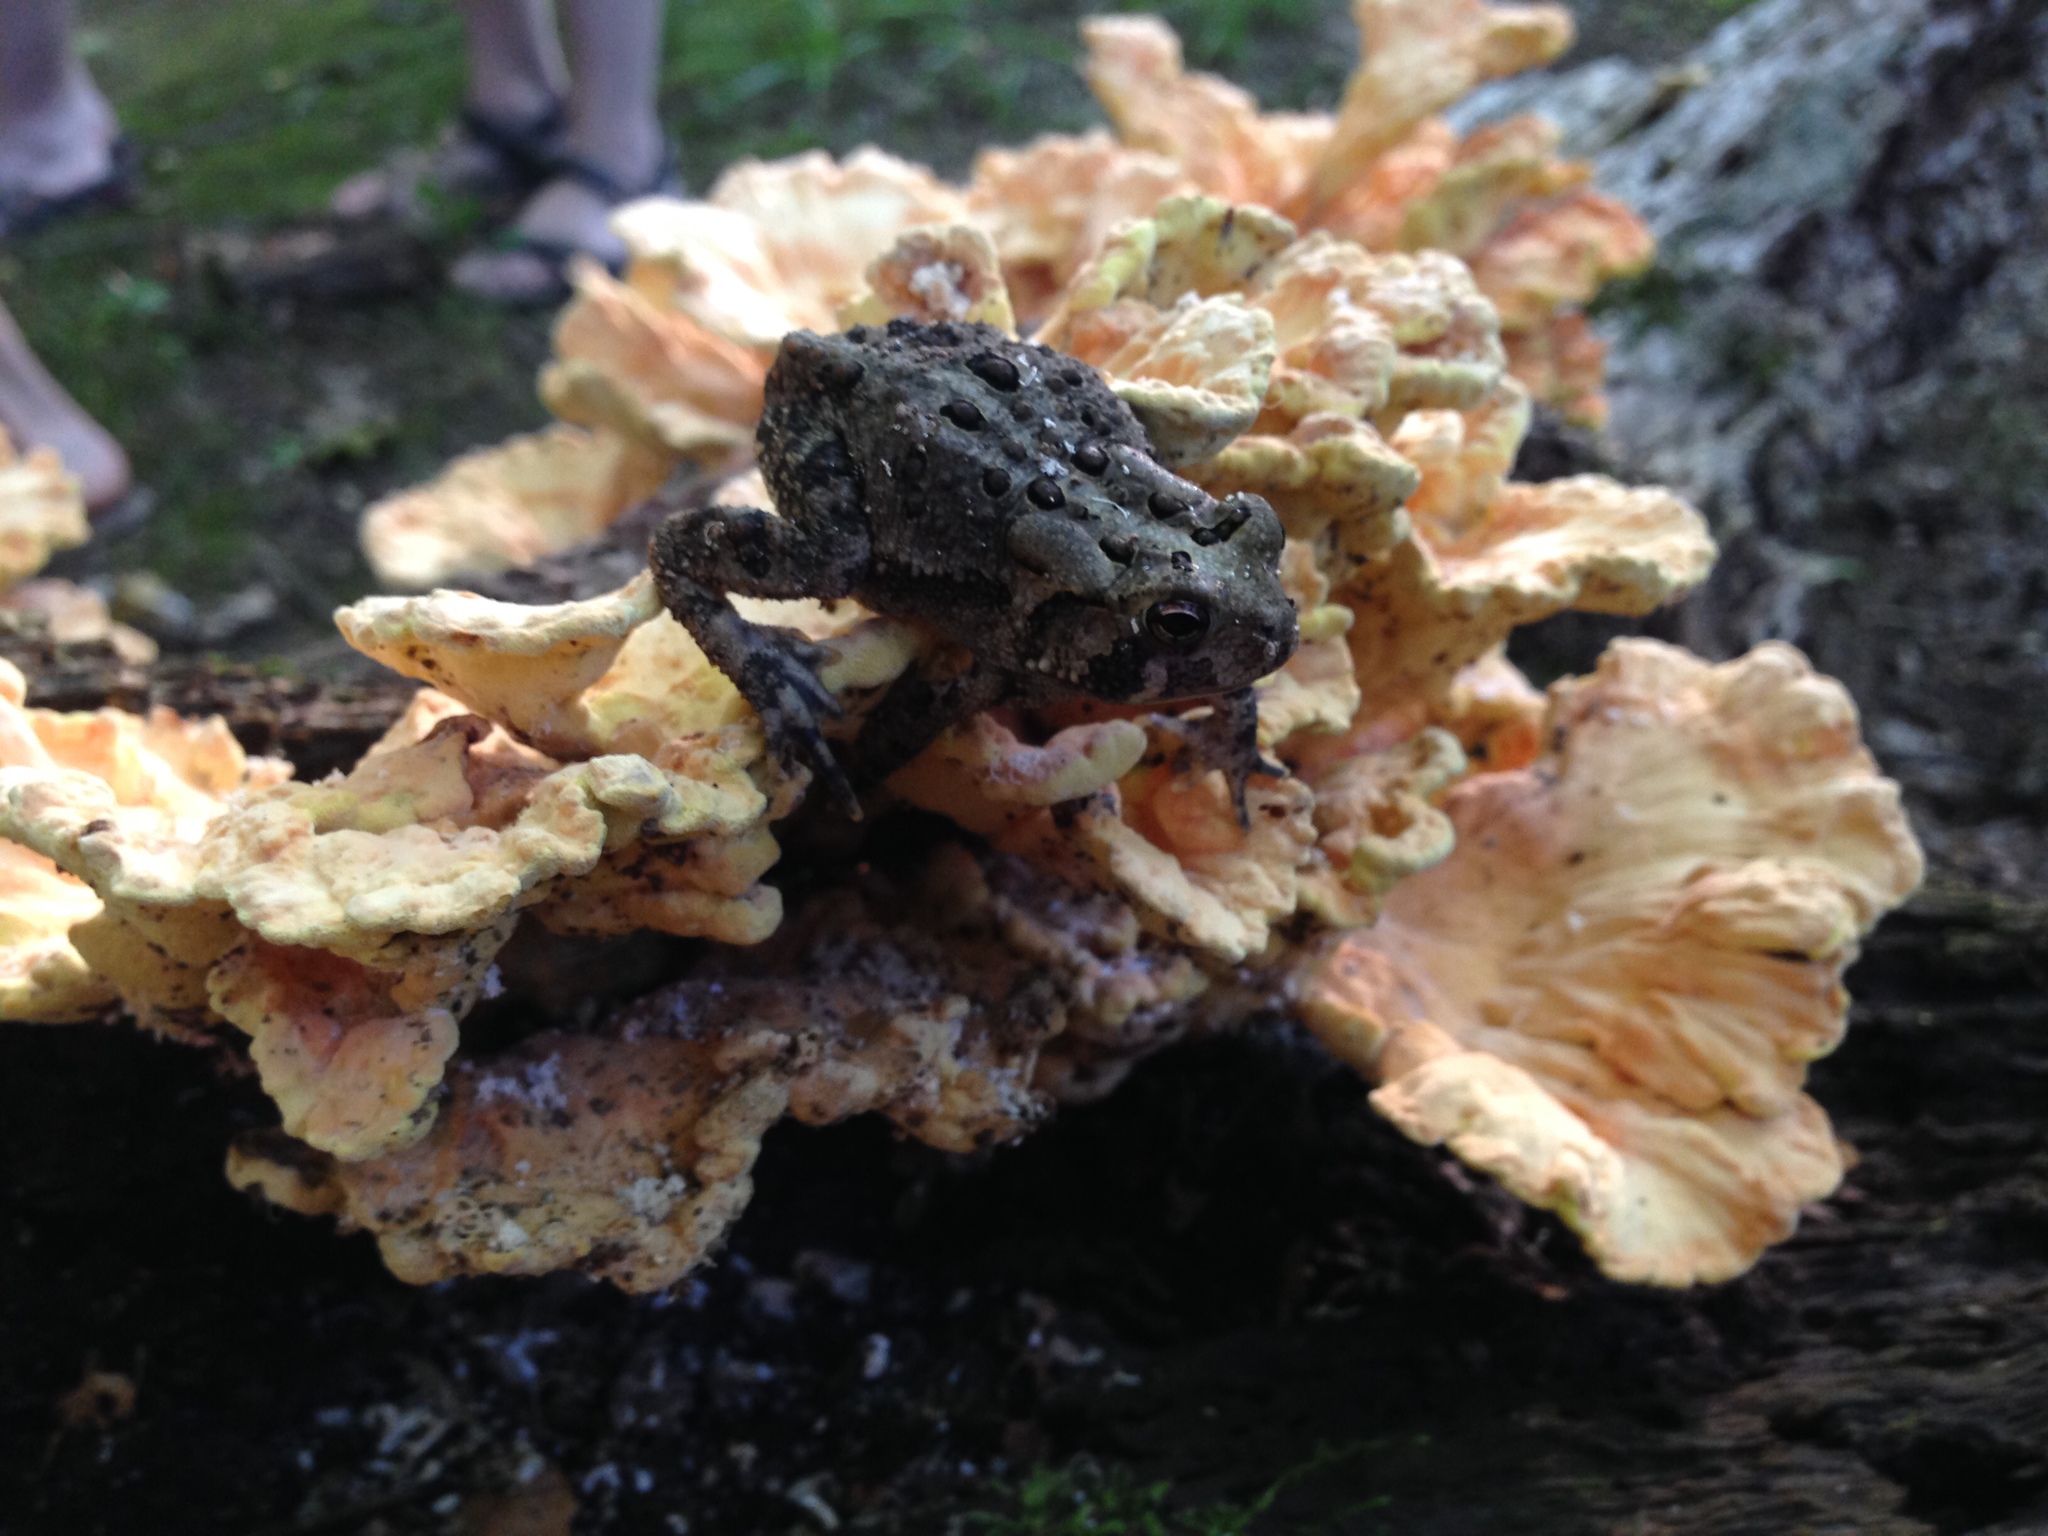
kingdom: Animalia
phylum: Chordata
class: Amphibia
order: Anura
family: Bufonidae
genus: Anaxyrus
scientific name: Anaxyrus americanus
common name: American toad
